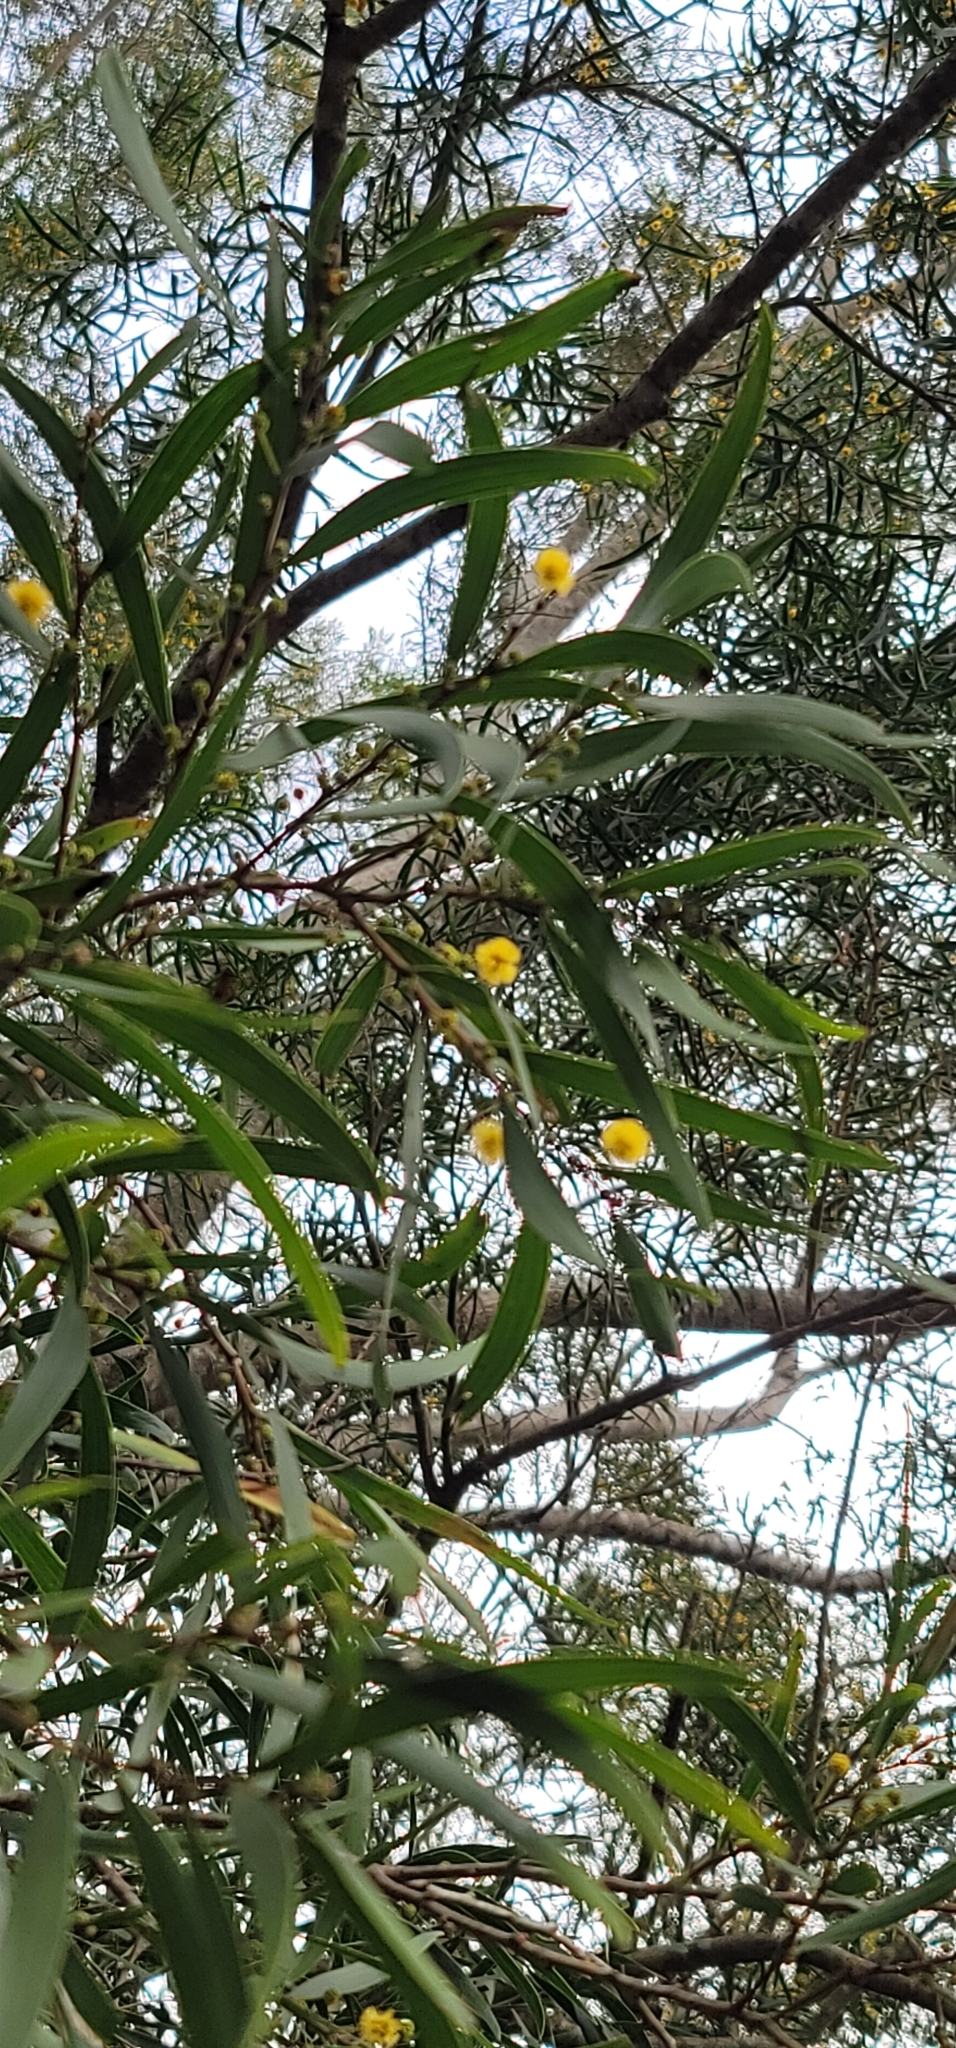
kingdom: Plantae
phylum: Tracheophyta
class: Magnoliopsida
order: Fabales
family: Fabaceae
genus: Acacia
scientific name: Acacia confusa
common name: Formosan koa
